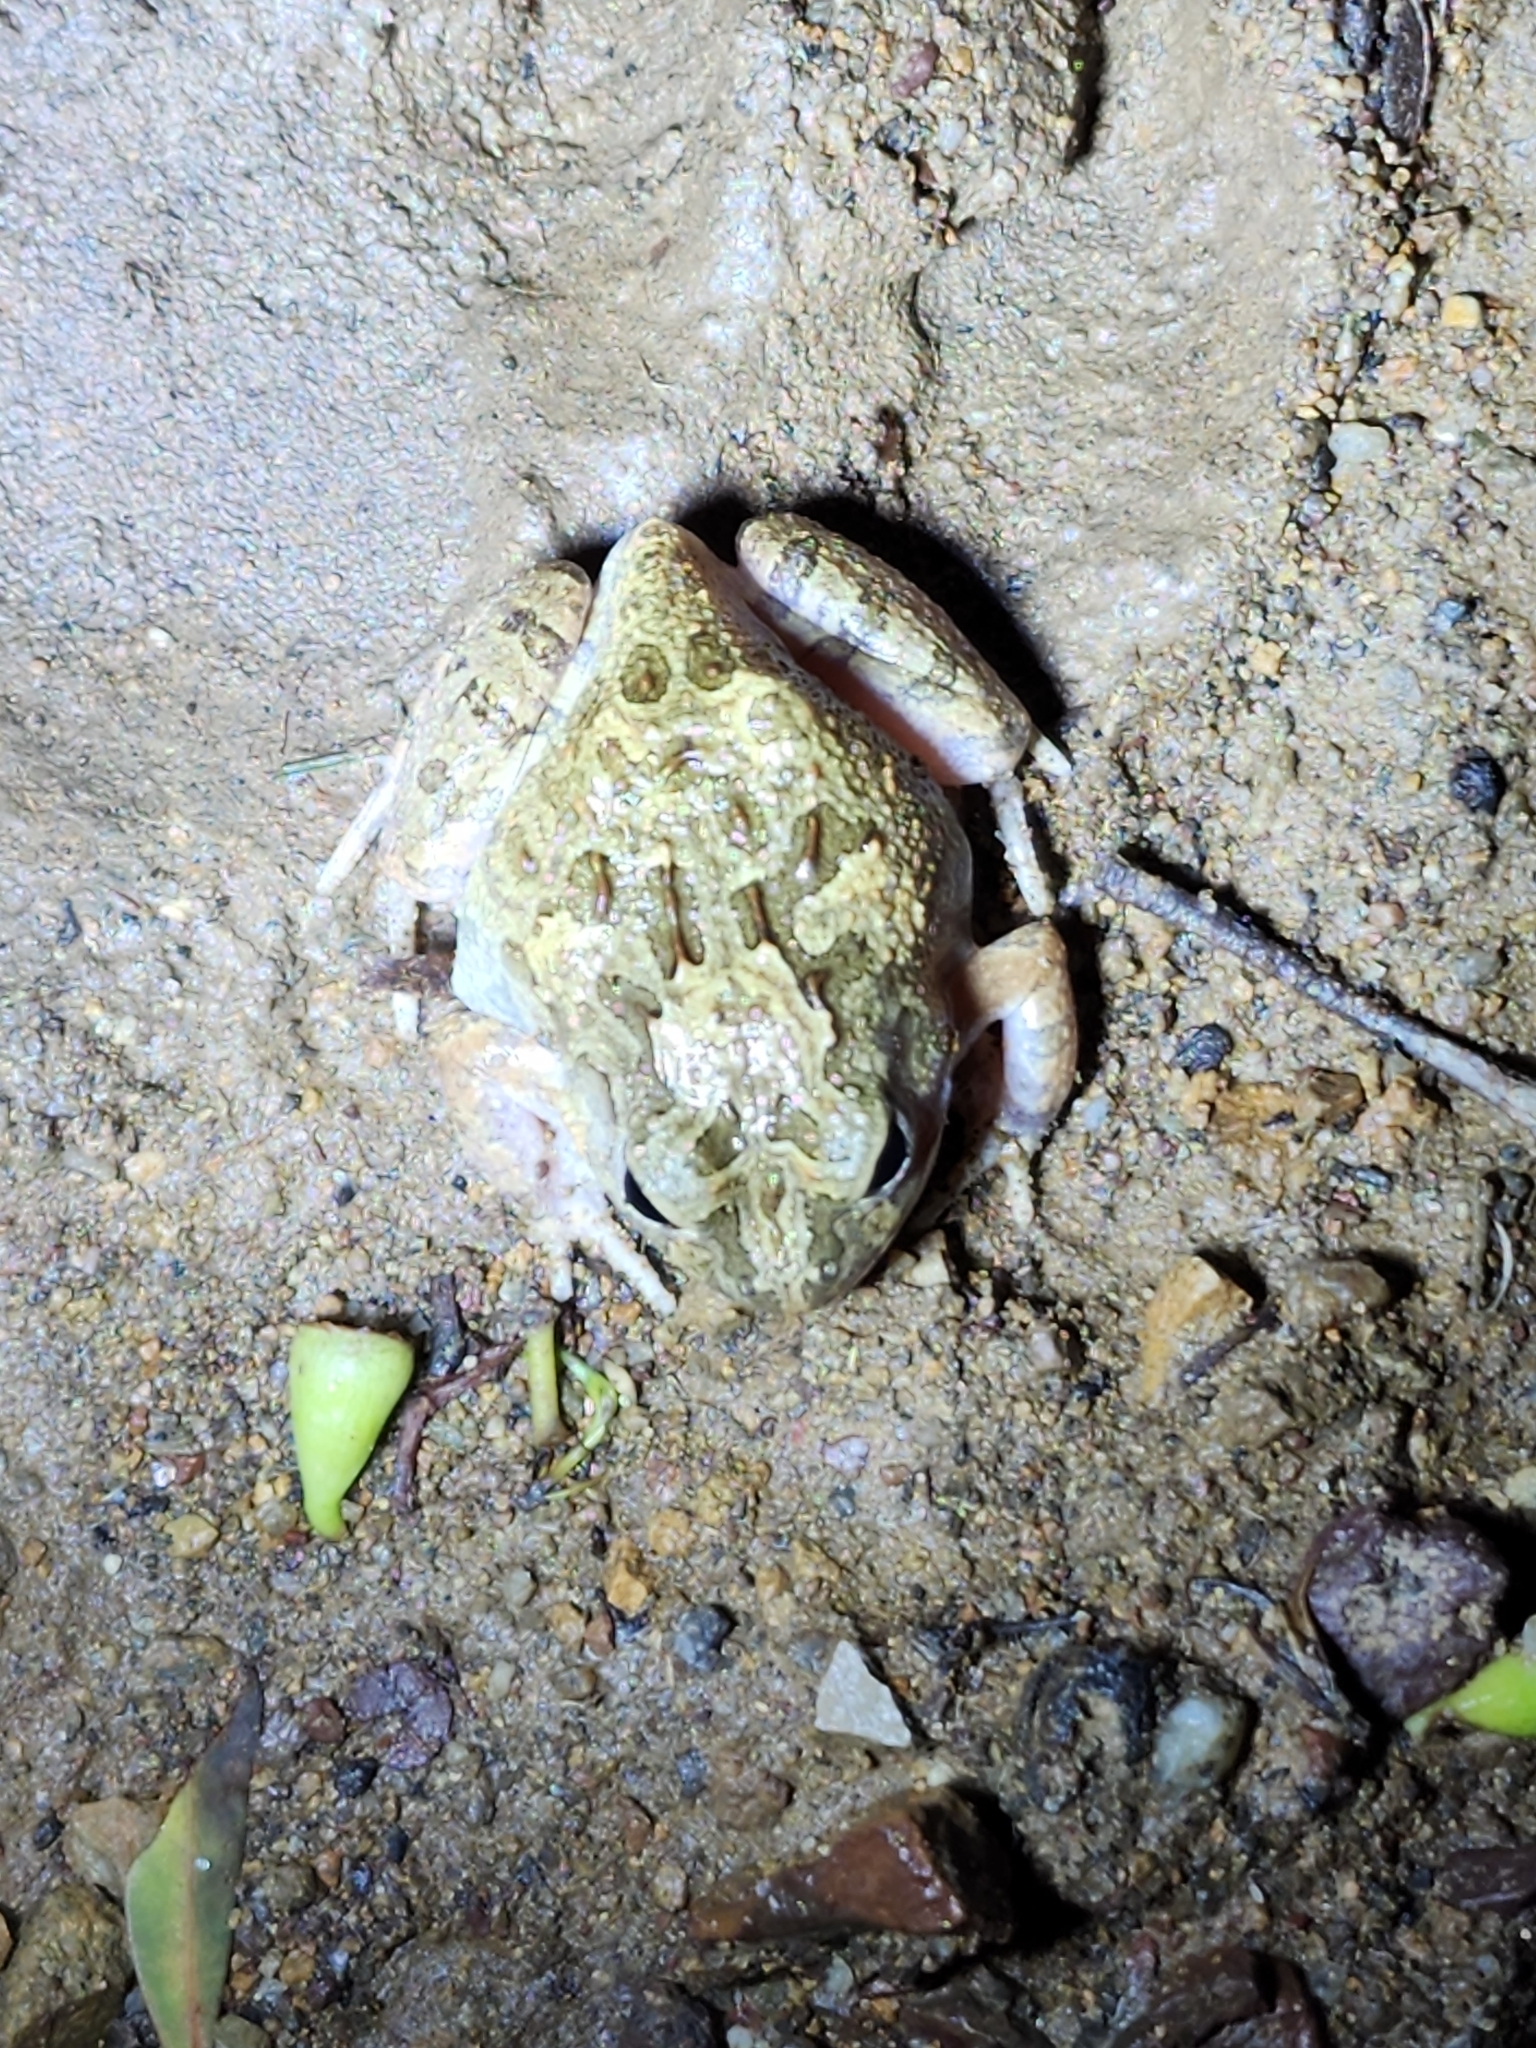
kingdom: Animalia
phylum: Chordata
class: Amphibia
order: Anura
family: Limnodynastidae
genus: Platyplectrum
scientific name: Platyplectrum ornatum
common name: Ornate burrowing frog
